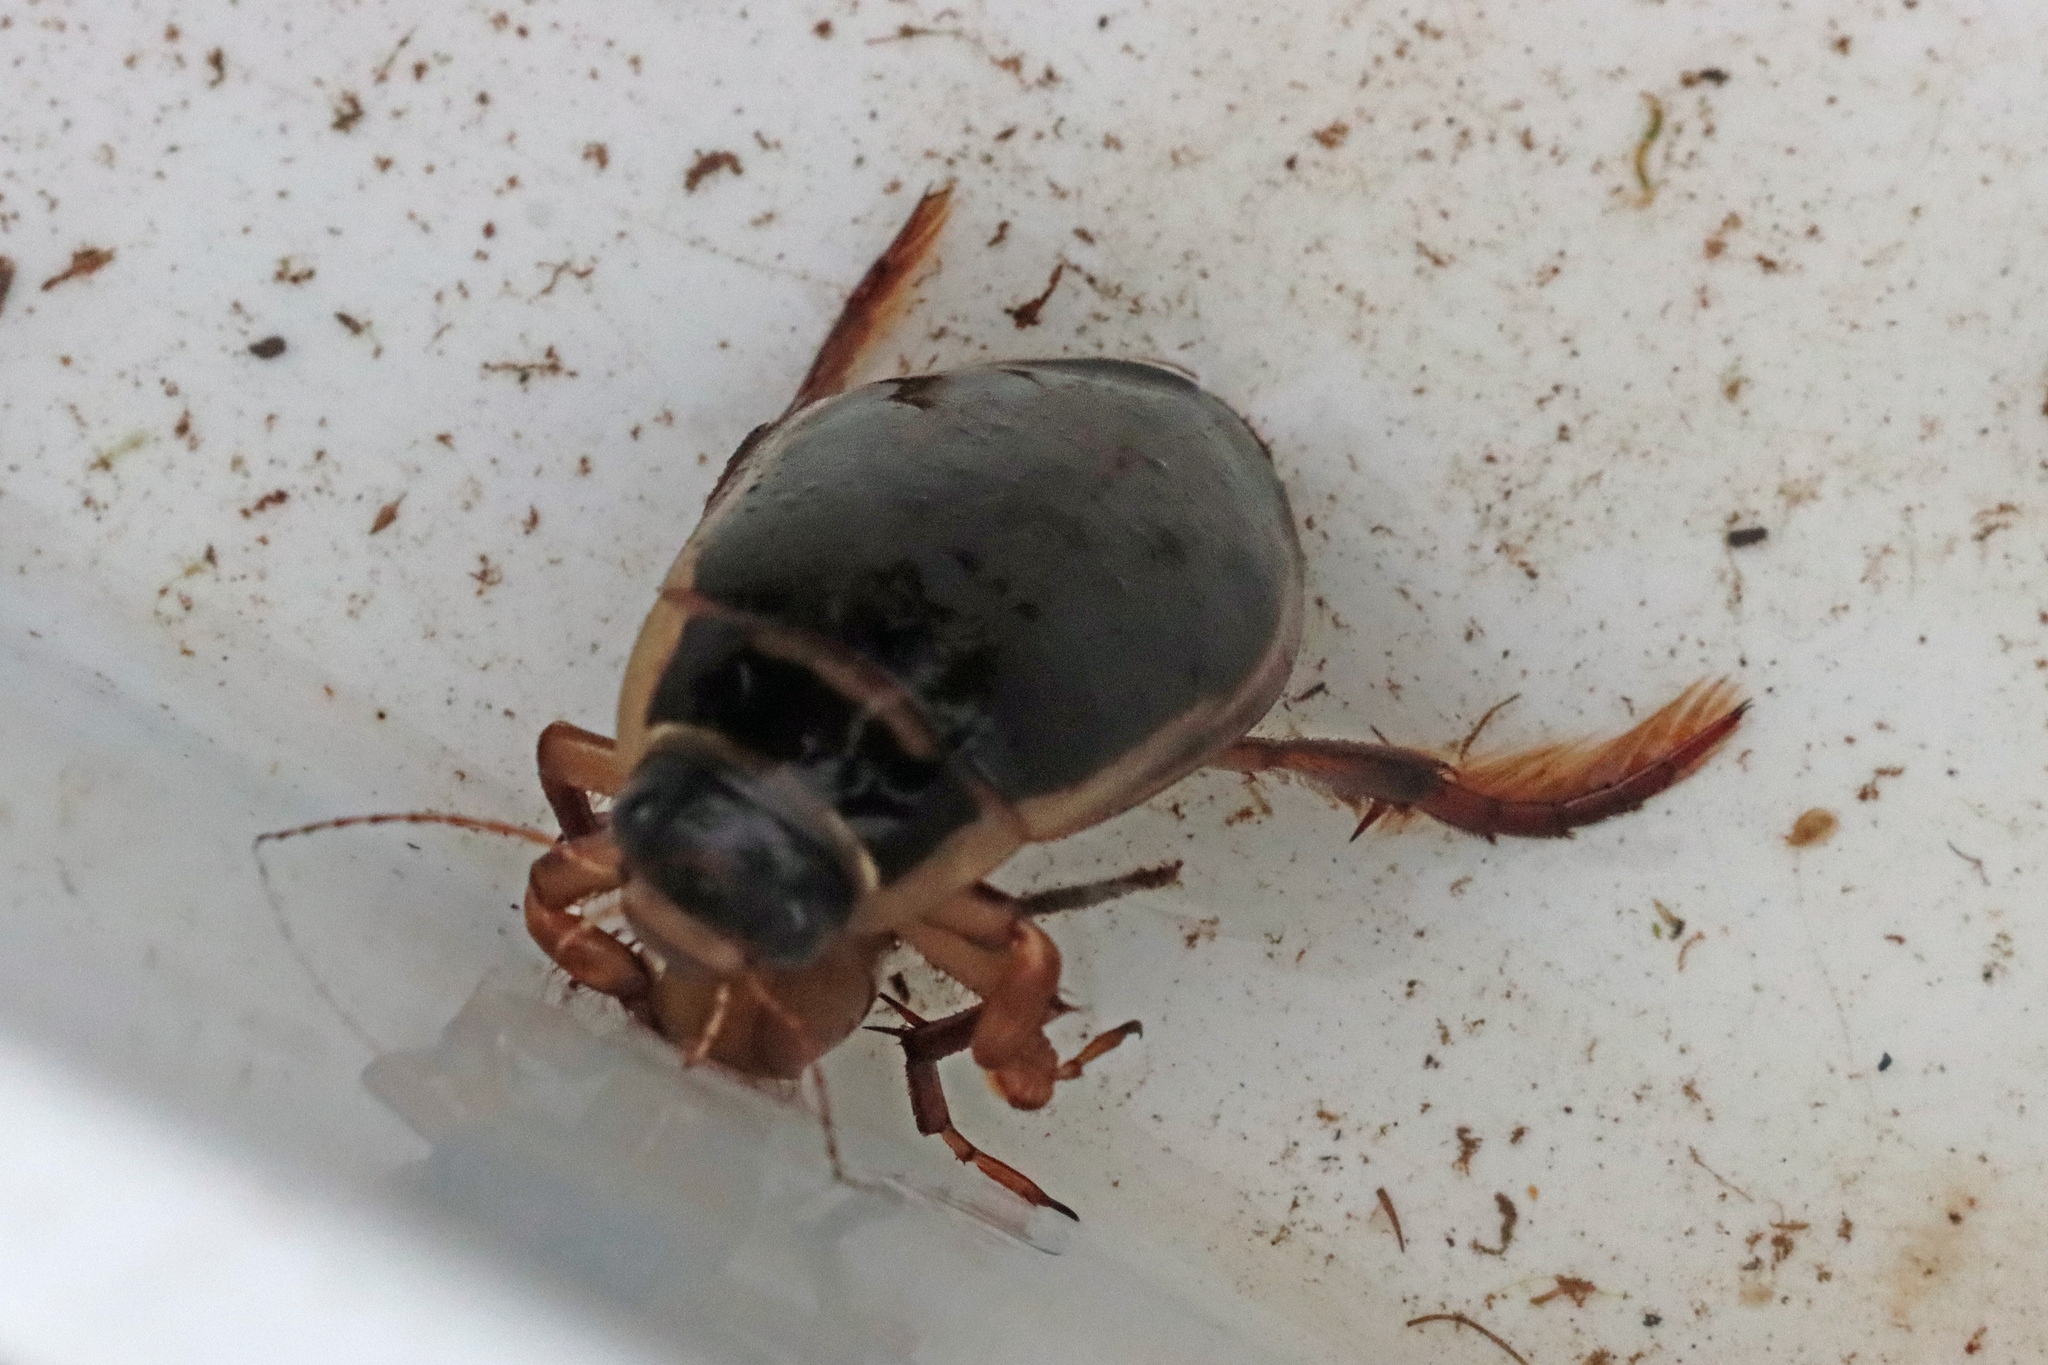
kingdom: Animalia
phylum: Arthropoda
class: Insecta
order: Coleoptera
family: Dytiscidae
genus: Dytiscus
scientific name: Dytiscus marginalis
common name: Great water beetle
